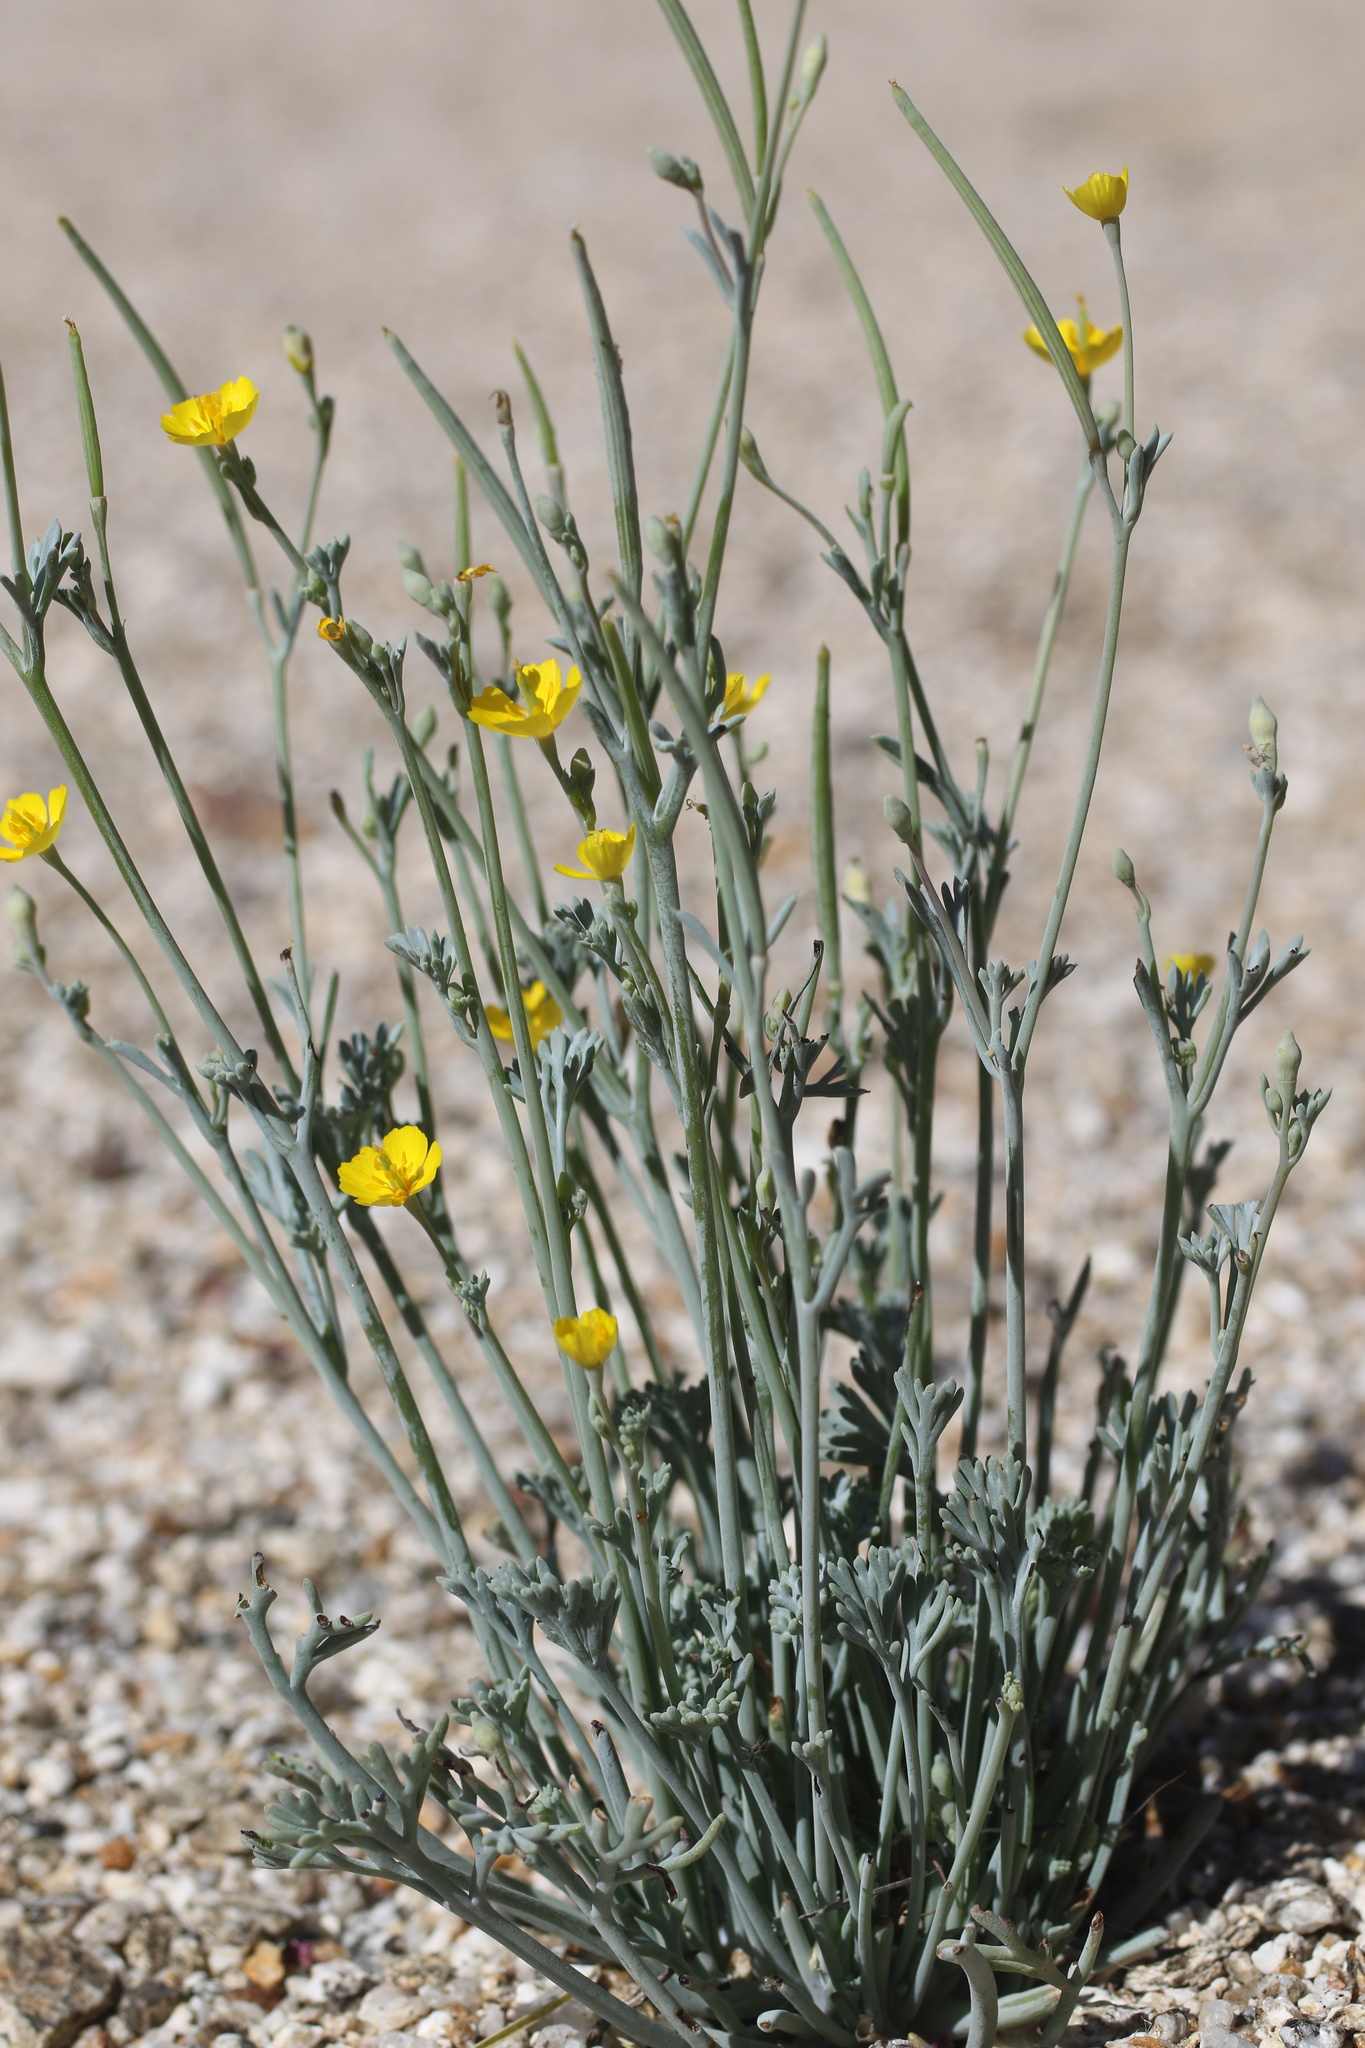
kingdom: Plantae
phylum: Tracheophyta
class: Magnoliopsida
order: Ranunculales
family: Papaveraceae
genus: Eschscholzia
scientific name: Eschscholzia minutiflora
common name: Small-flower california-poppy
